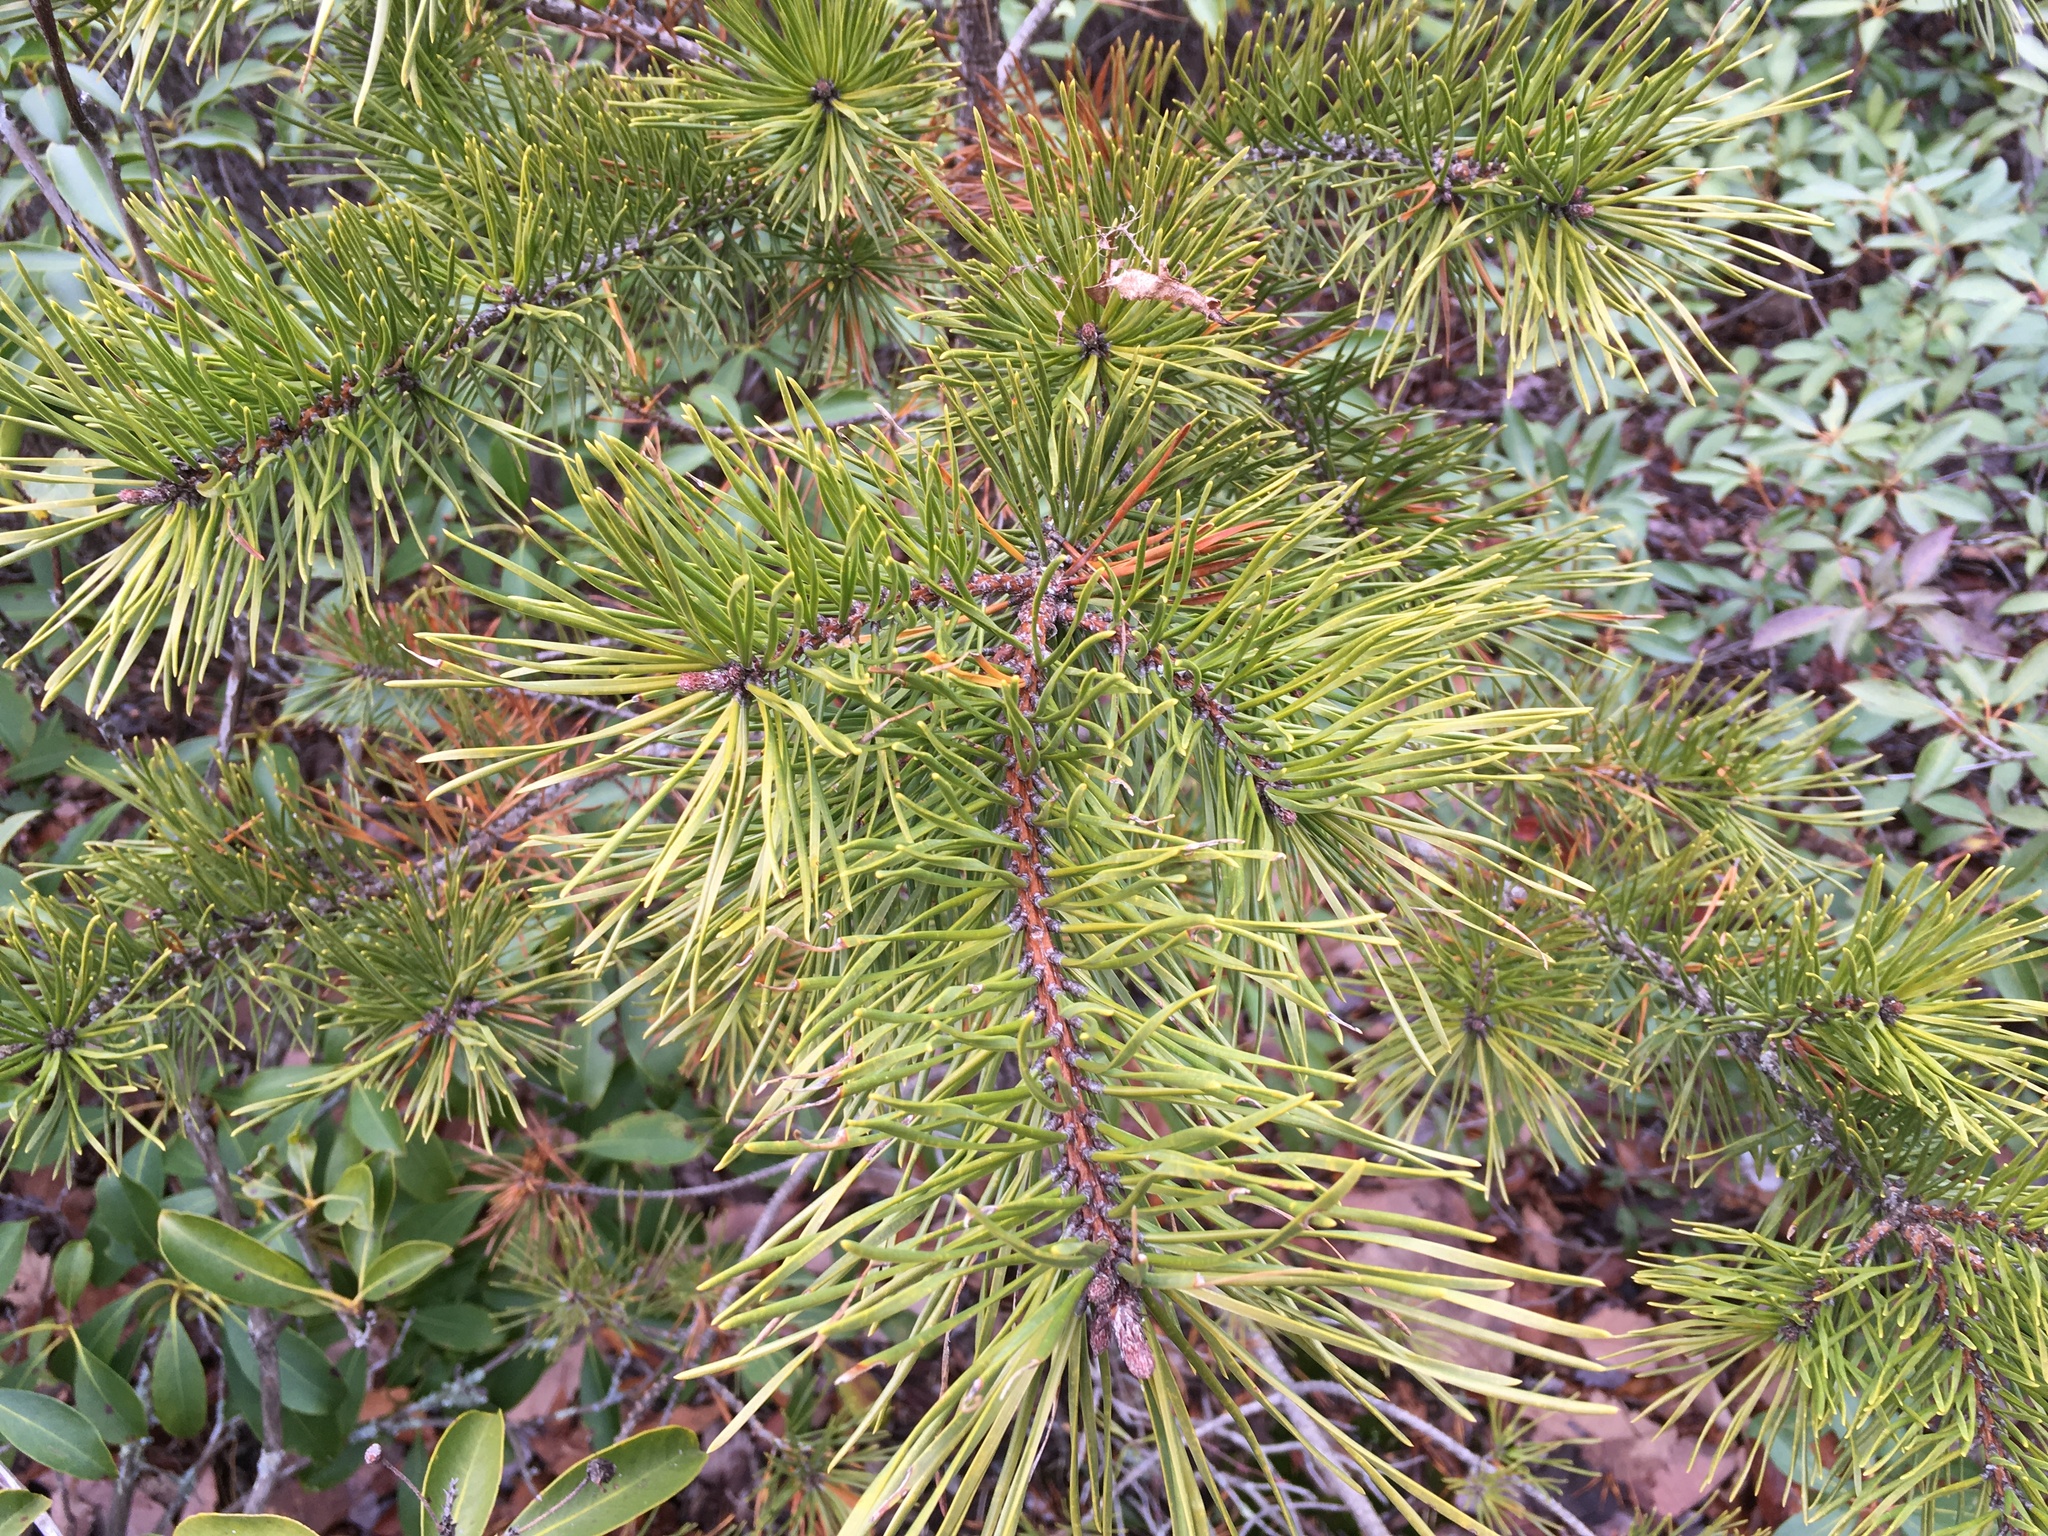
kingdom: Plantae
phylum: Tracheophyta
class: Pinopsida
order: Pinales
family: Pinaceae
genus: Pinus
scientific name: Pinus virginiana
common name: Scrub pine
